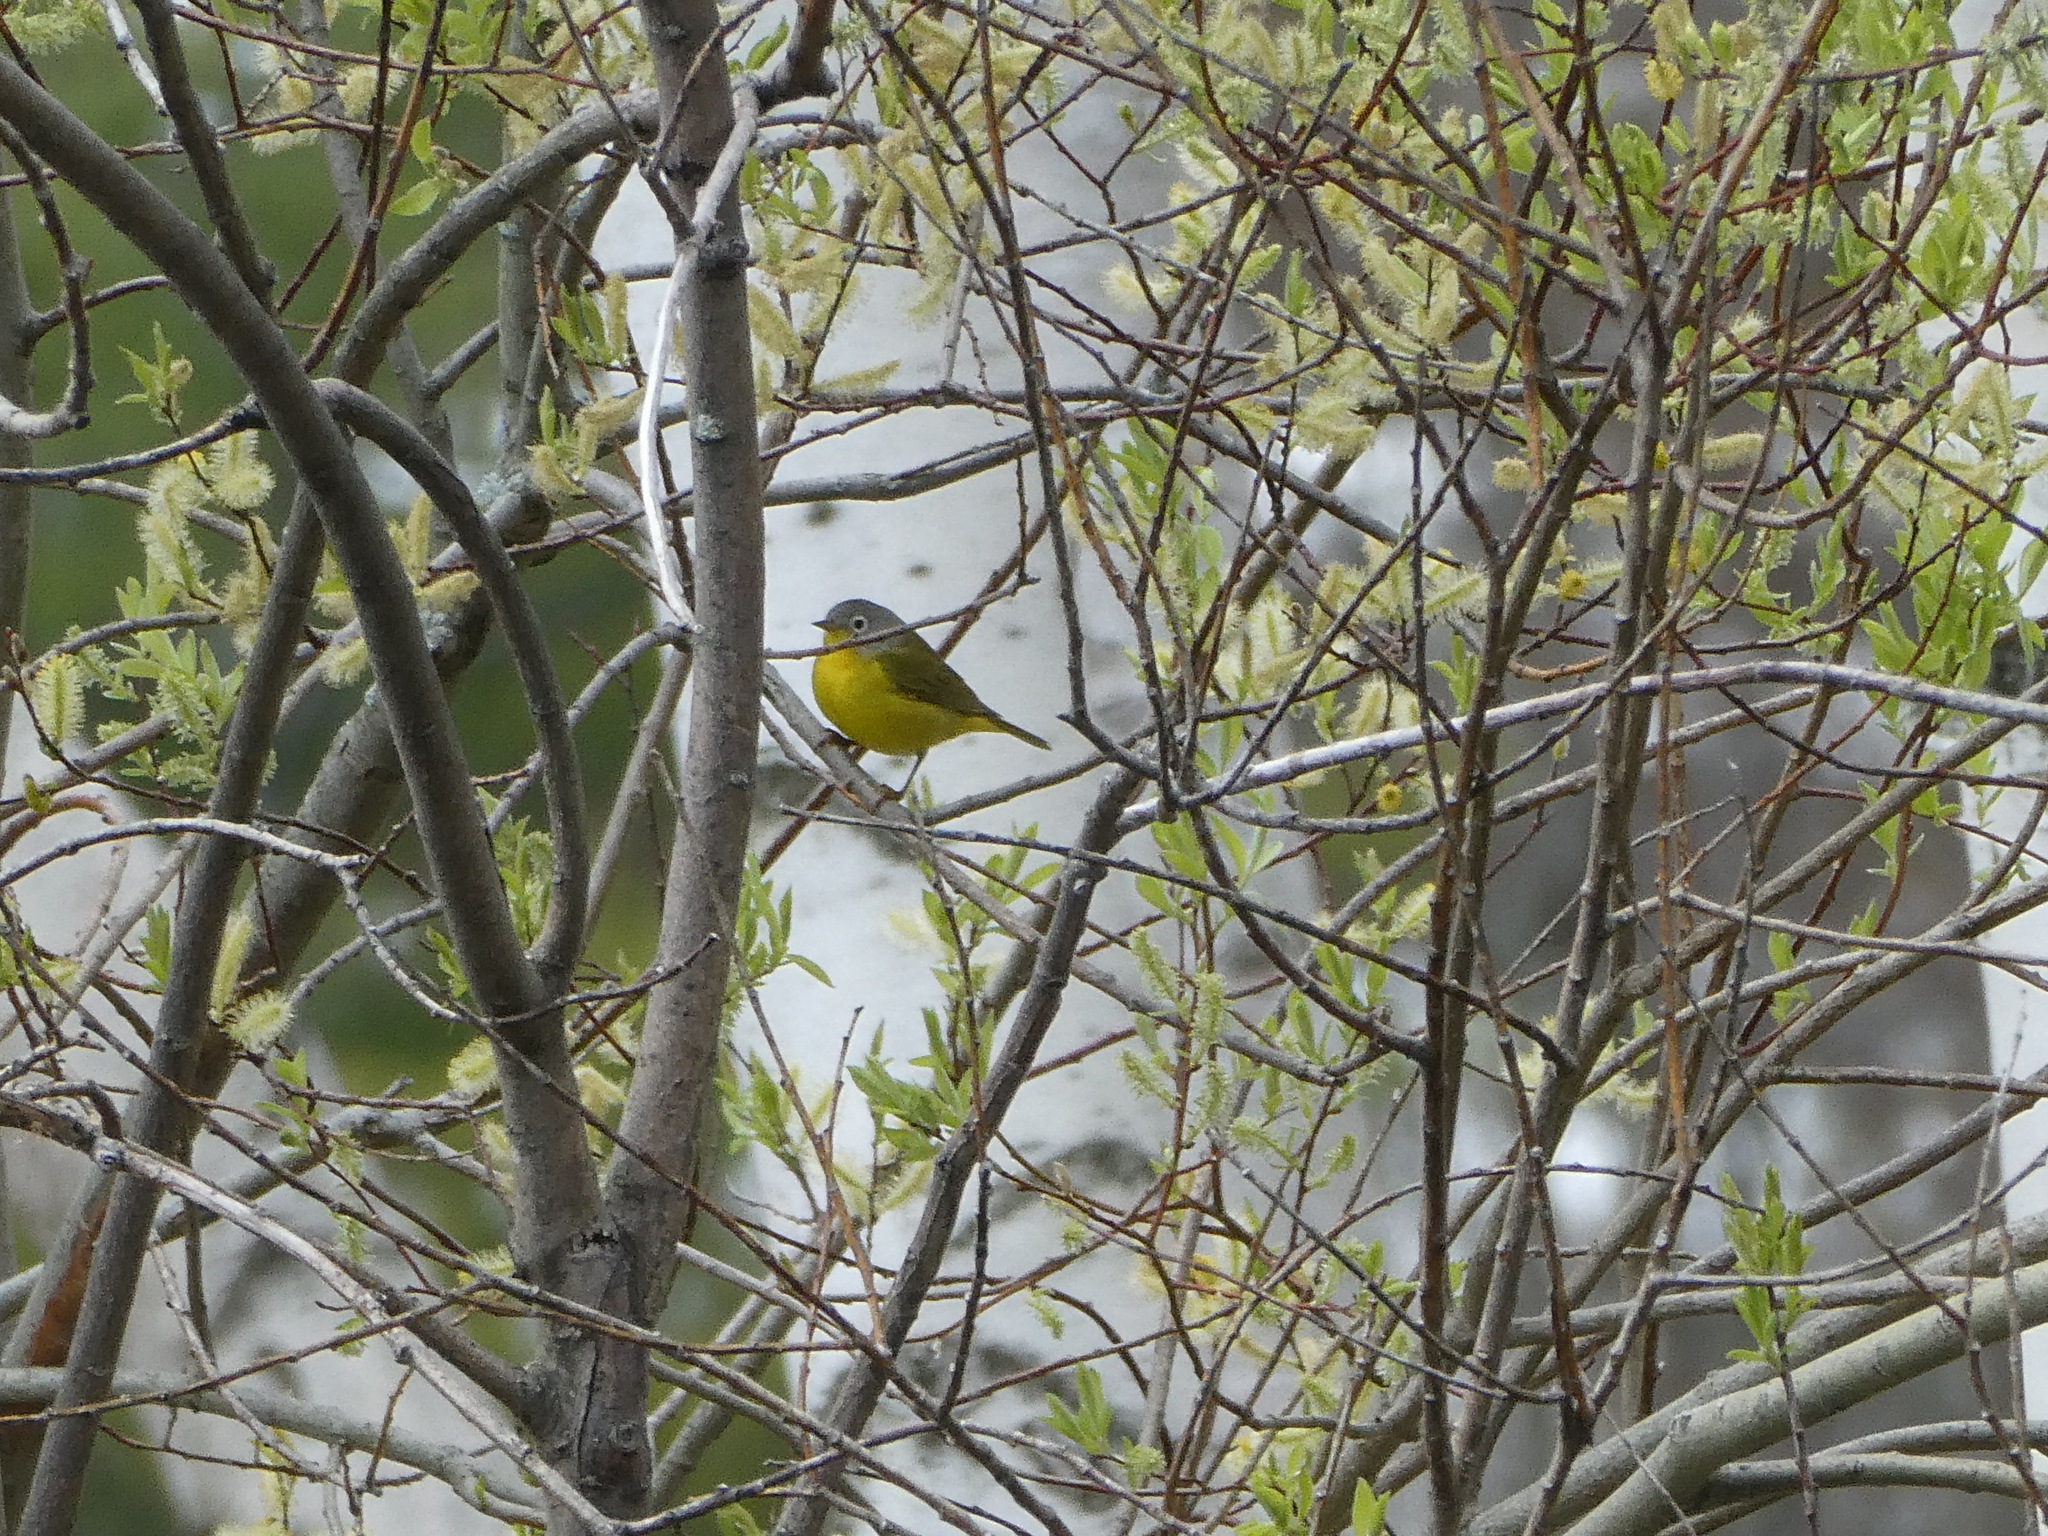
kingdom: Animalia
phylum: Chordata
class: Aves
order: Passeriformes
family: Parulidae
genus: Leiothlypis
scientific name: Leiothlypis ruficapilla
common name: Nashville warbler
